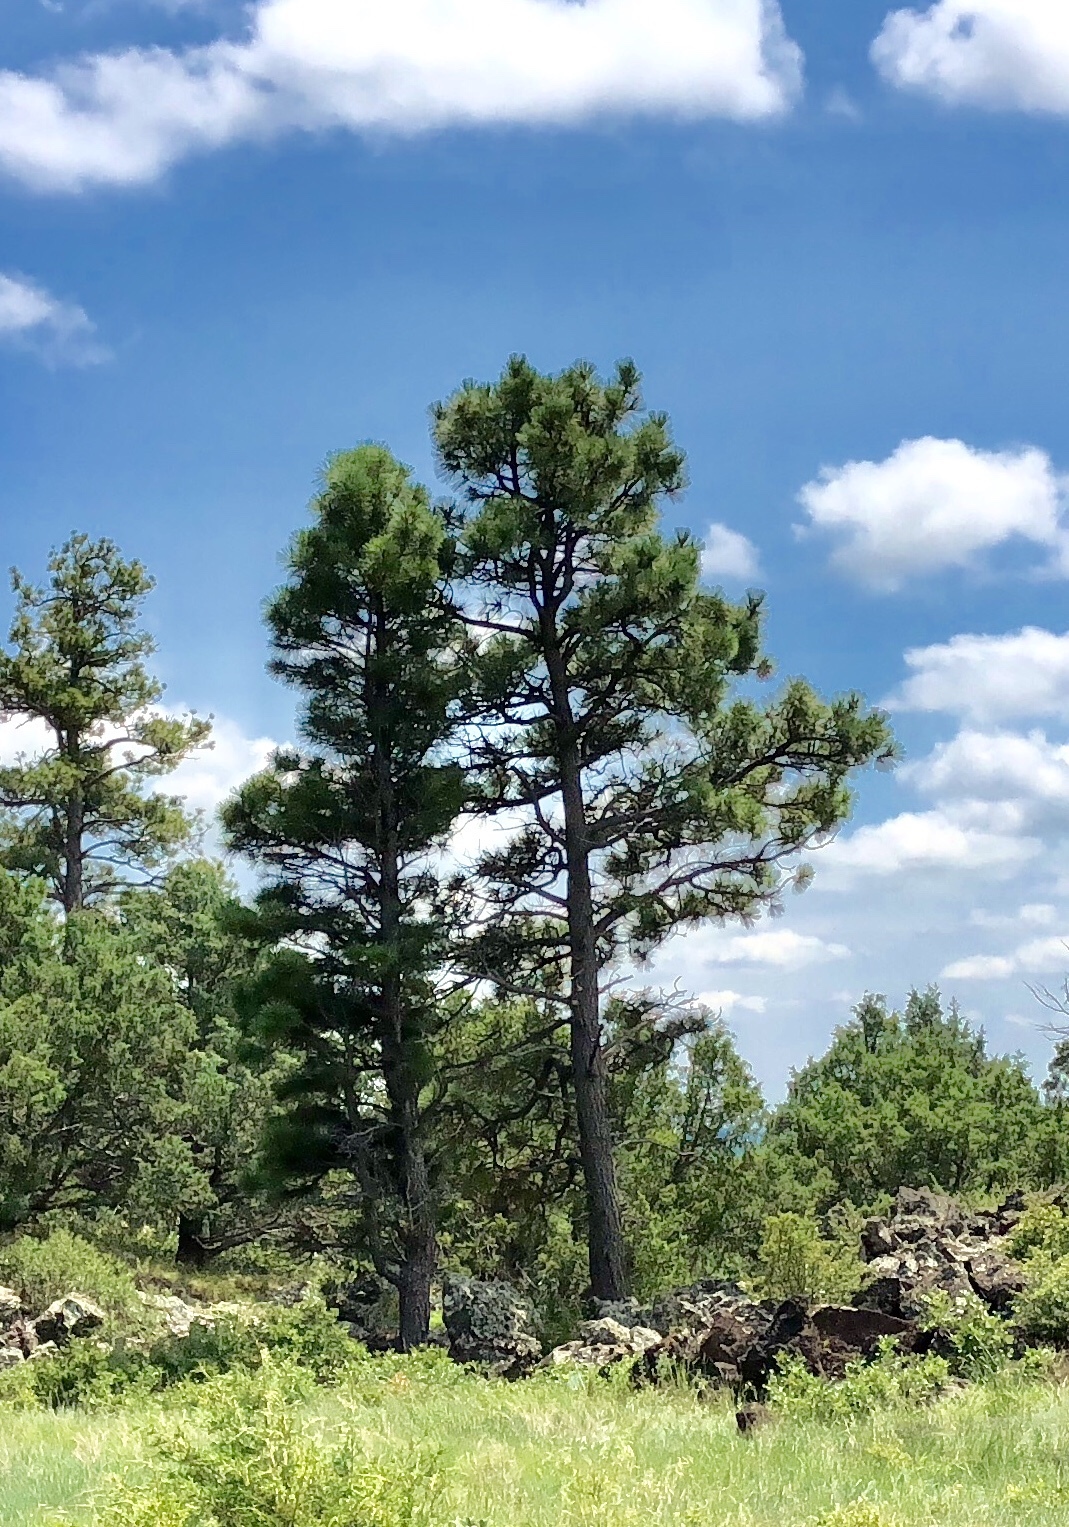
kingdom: Plantae
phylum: Tracheophyta
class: Pinopsida
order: Pinales
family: Pinaceae
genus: Pinus
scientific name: Pinus ponderosa
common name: Western yellow-pine
